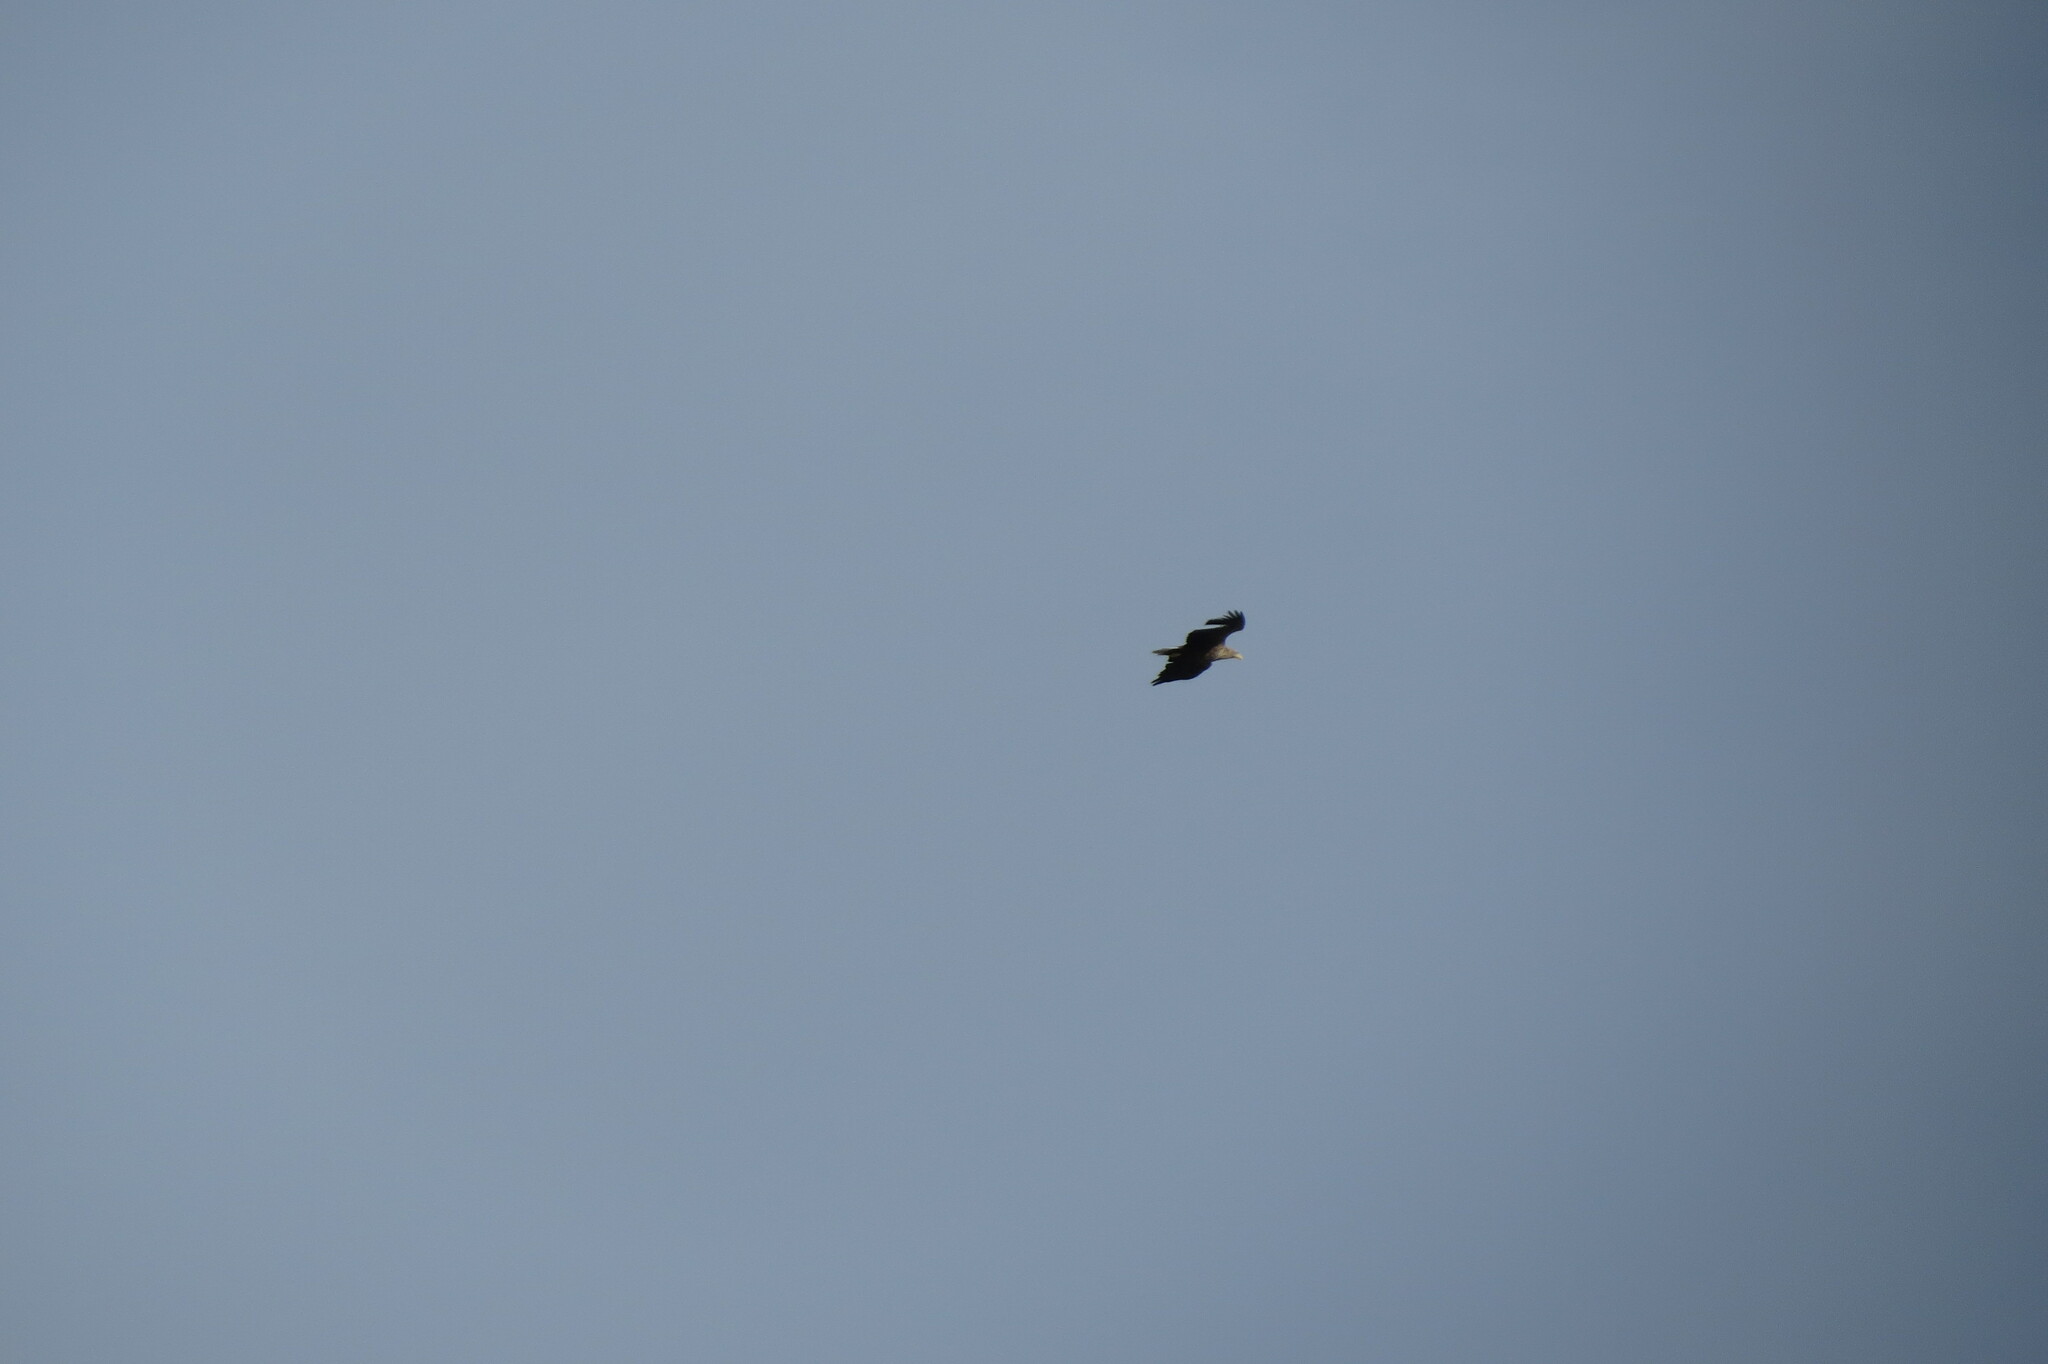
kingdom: Animalia
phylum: Chordata
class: Aves
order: Accipitriformes
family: Accipitridae
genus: Haliaeetus
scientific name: Haliaeetus albicilla
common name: White-tailed eagle
